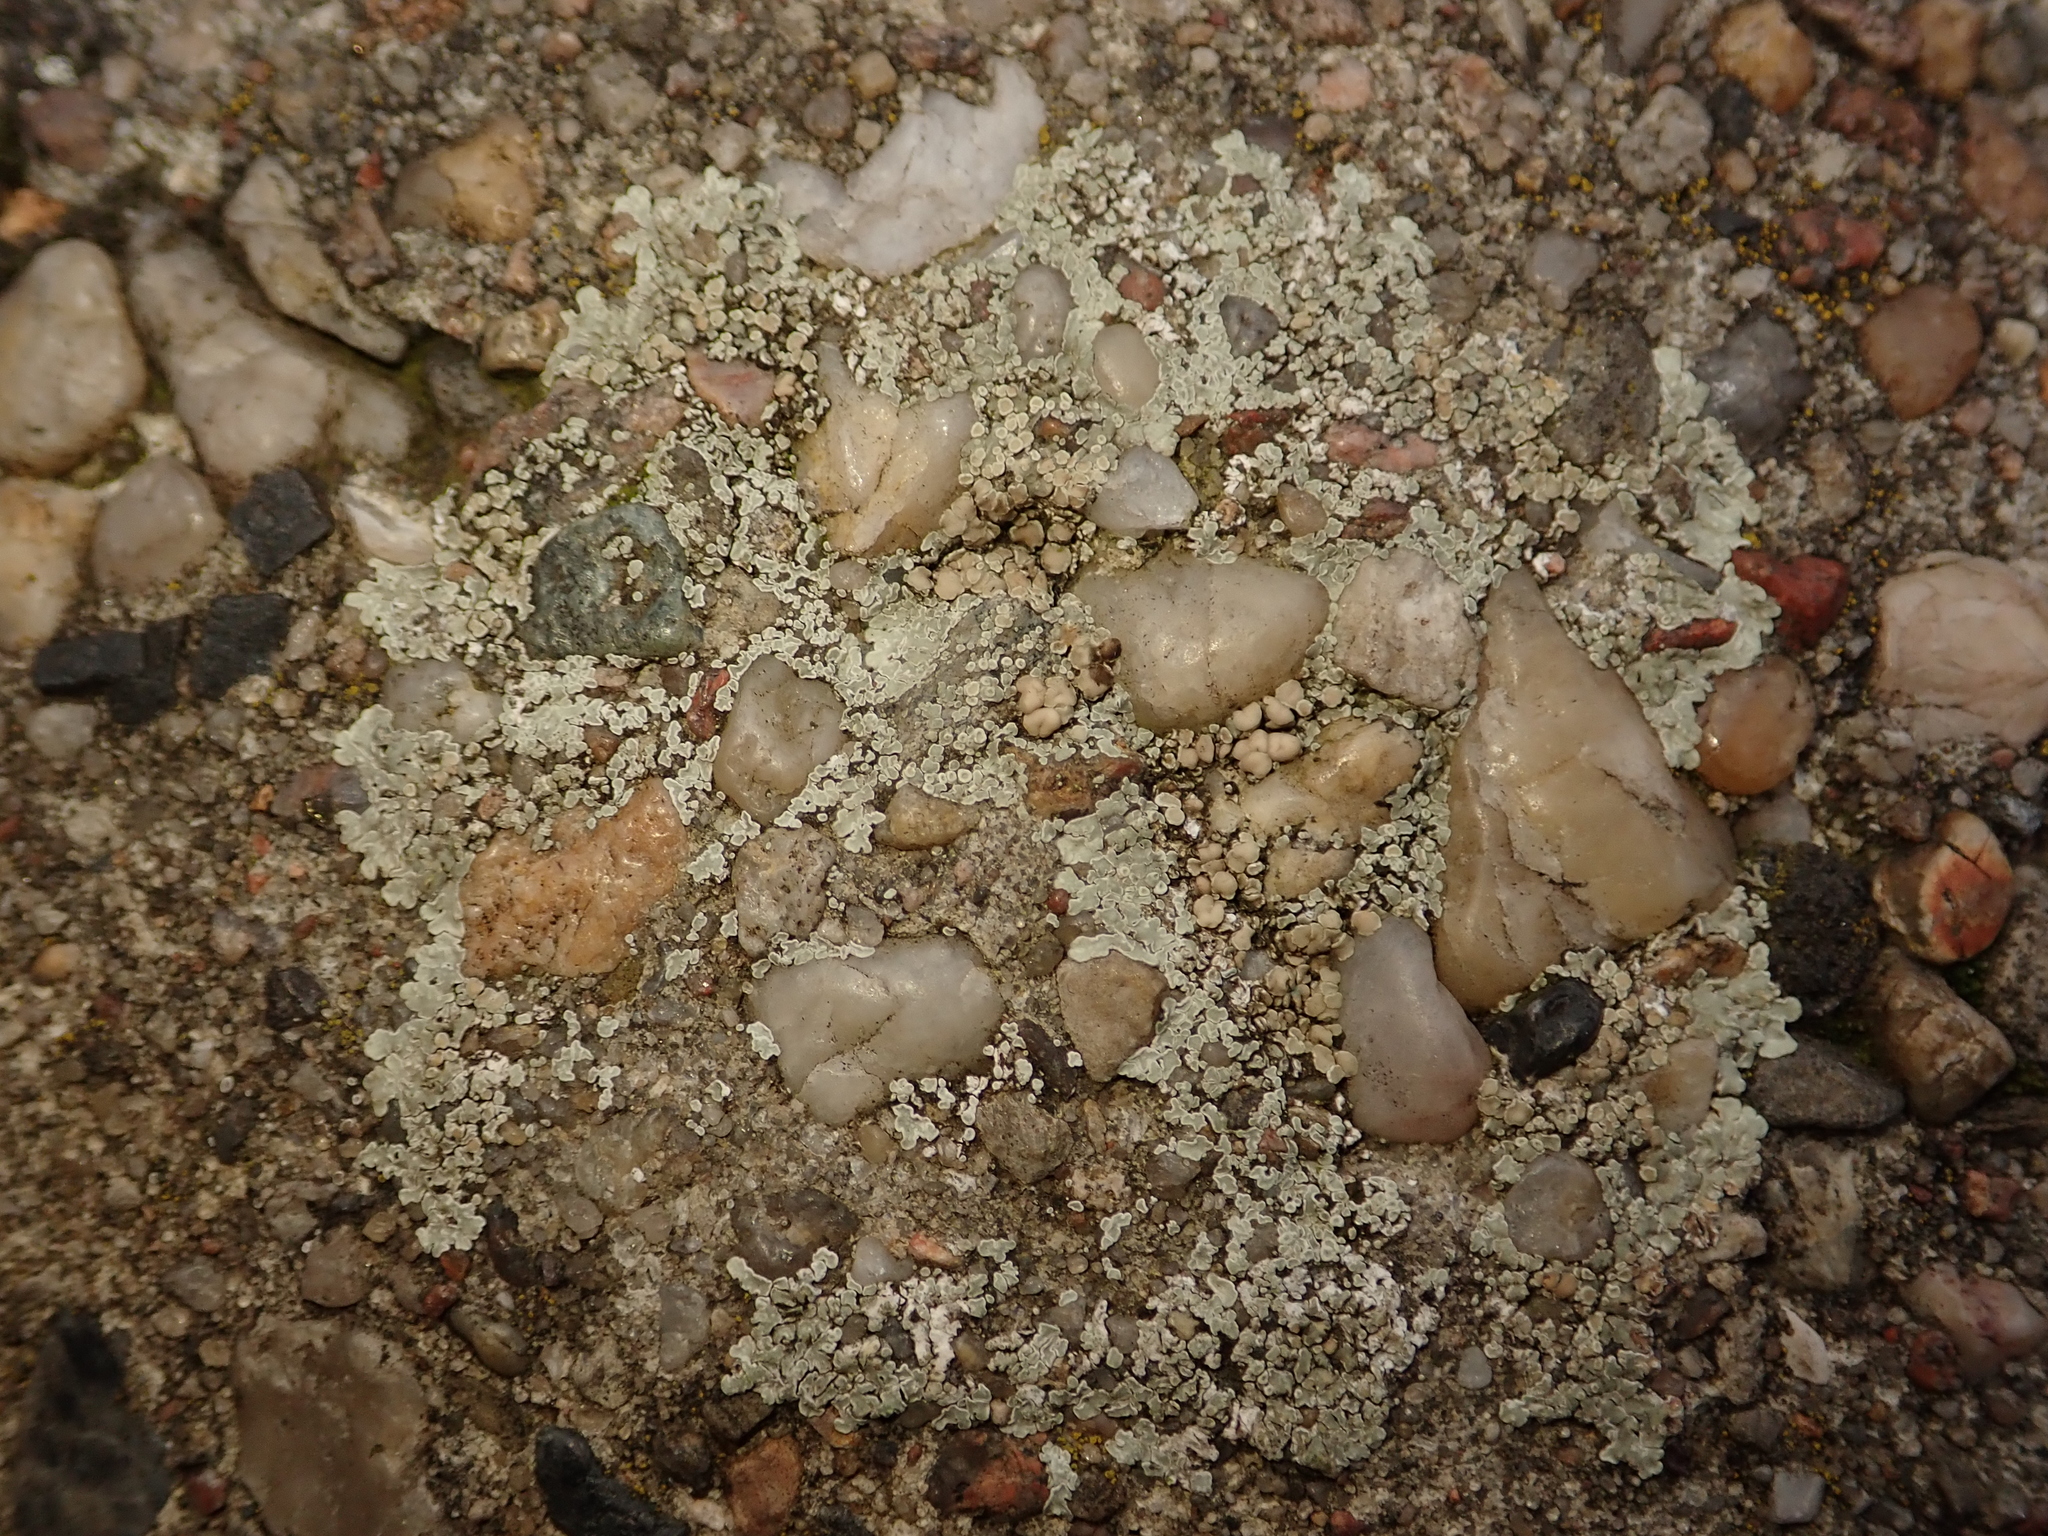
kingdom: Fungi
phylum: Ascomycota
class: Lecanoromycetes
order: Lecanorales
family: Lecanoraceae
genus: Protoparmeliopsis
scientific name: Protoparmeliopsis muralis
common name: Stonewall rim lichen
